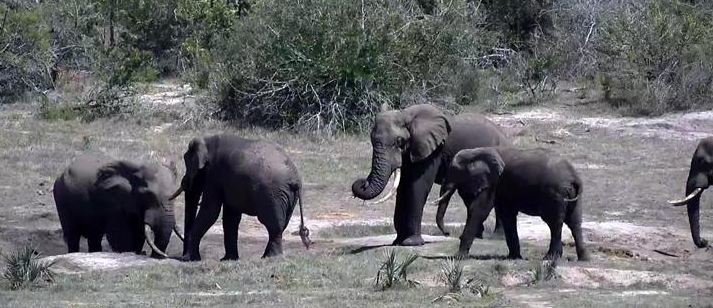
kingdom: Animalia
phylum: Chordata
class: Mammalia
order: Proboscidea
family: Elephantidae
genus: Loxodonta
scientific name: Loxodonta africana
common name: African elephant
